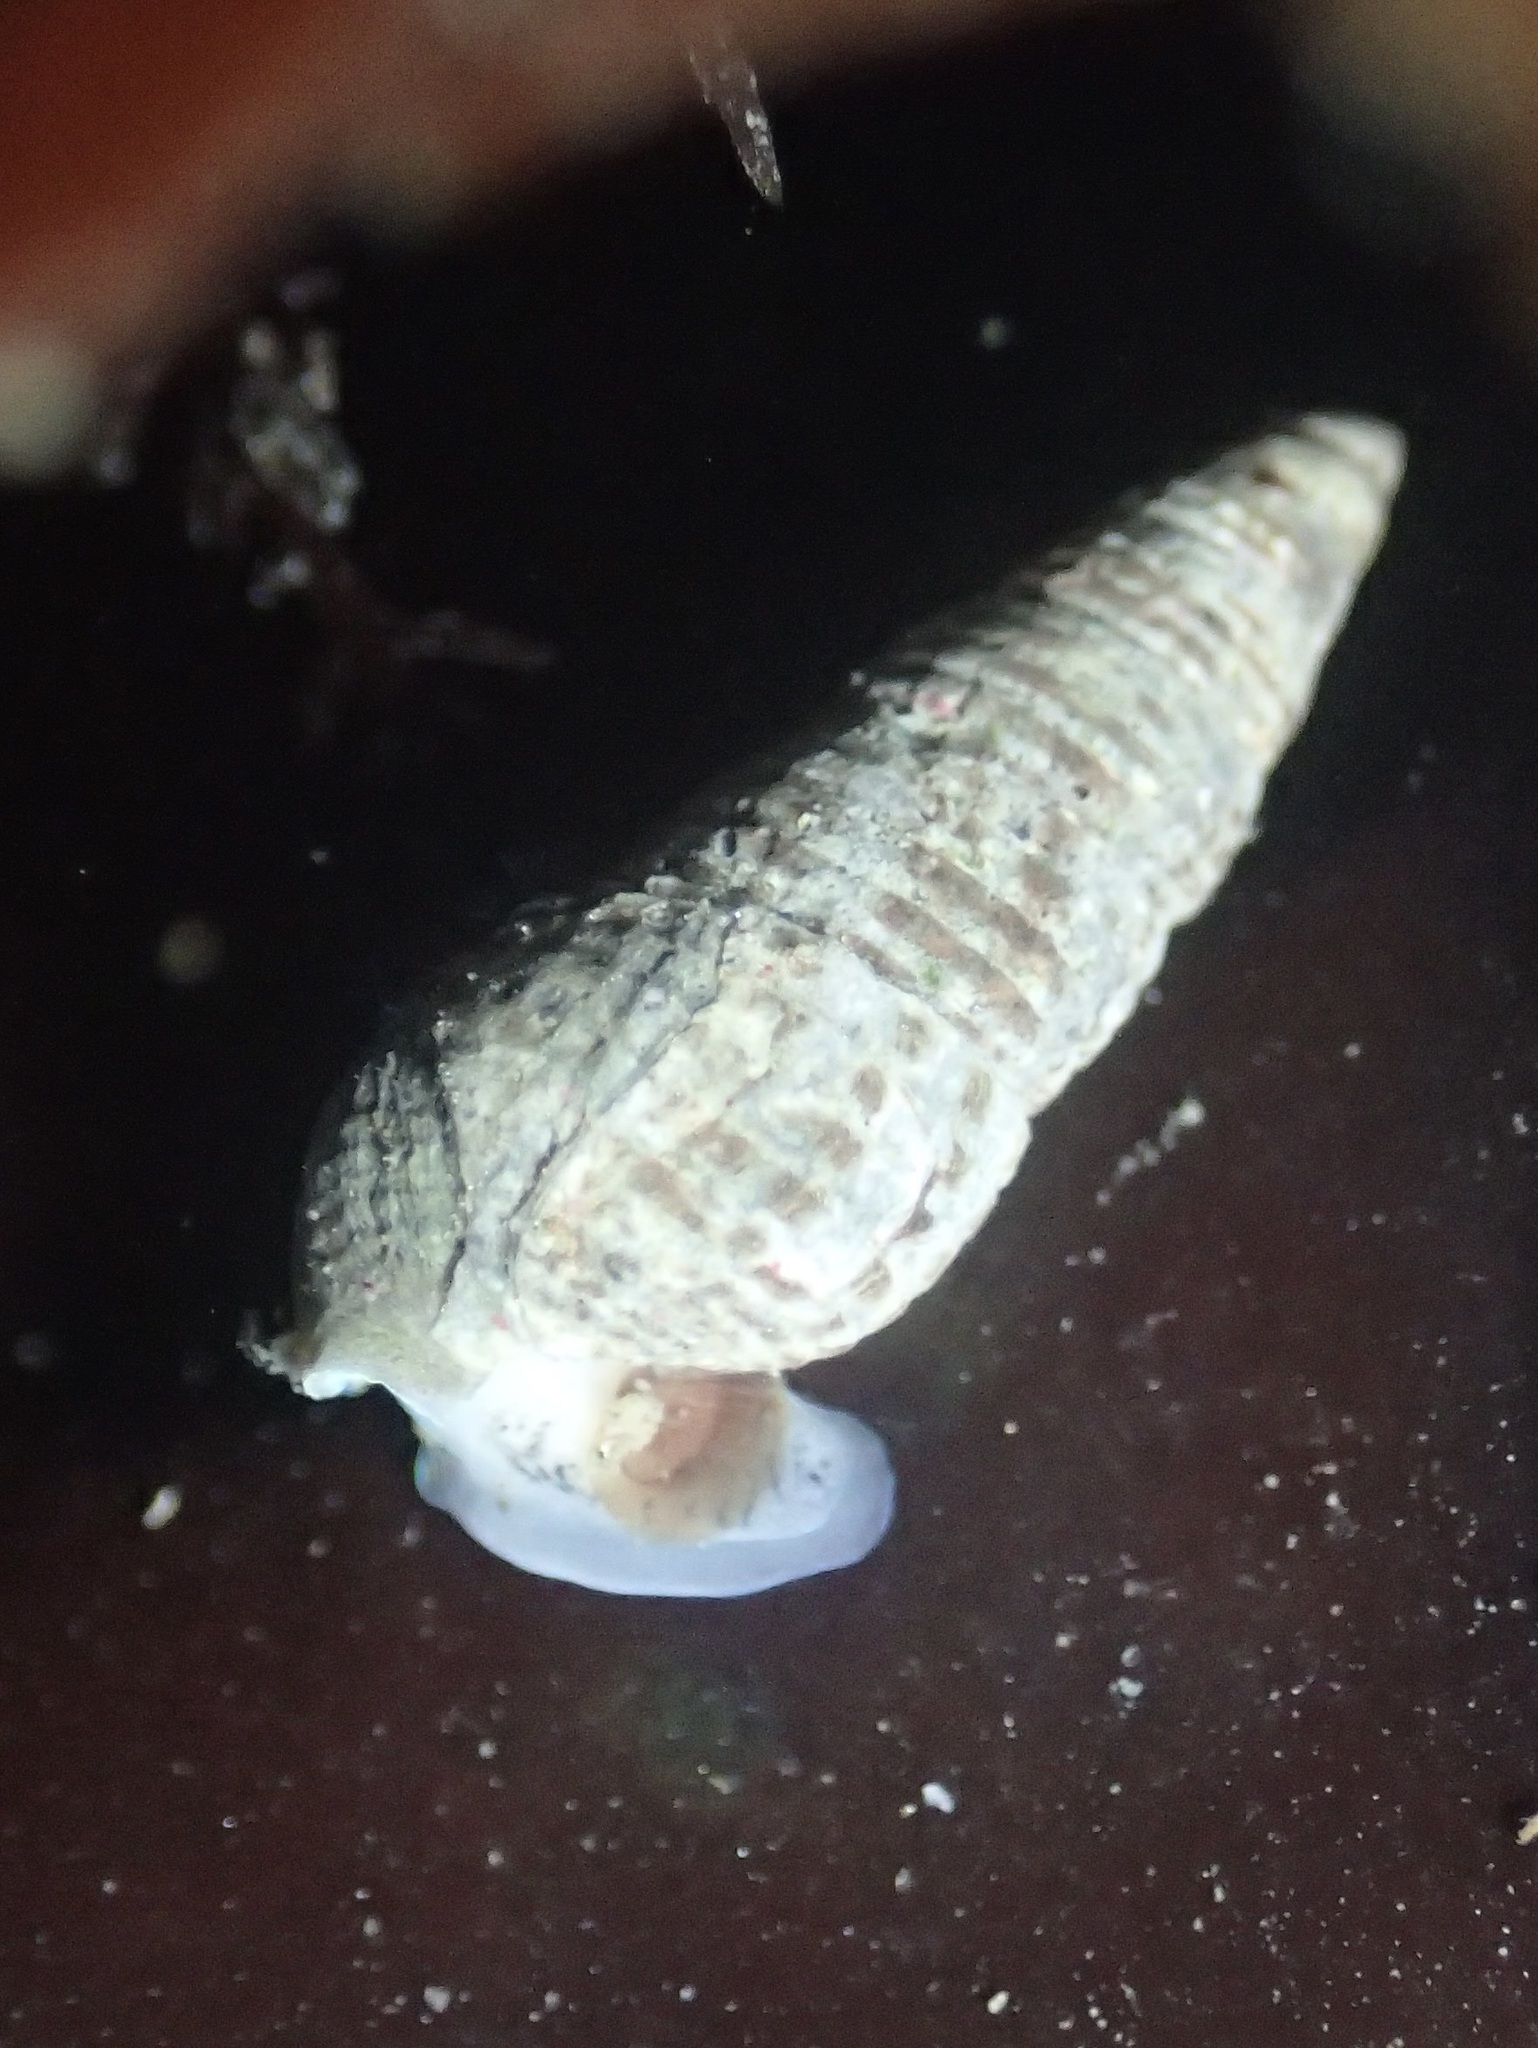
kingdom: Animalia
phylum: Mollusca
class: Gastropoda
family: Cerithiidae
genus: Neostylidium
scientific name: Neostylidium eschrichtii
